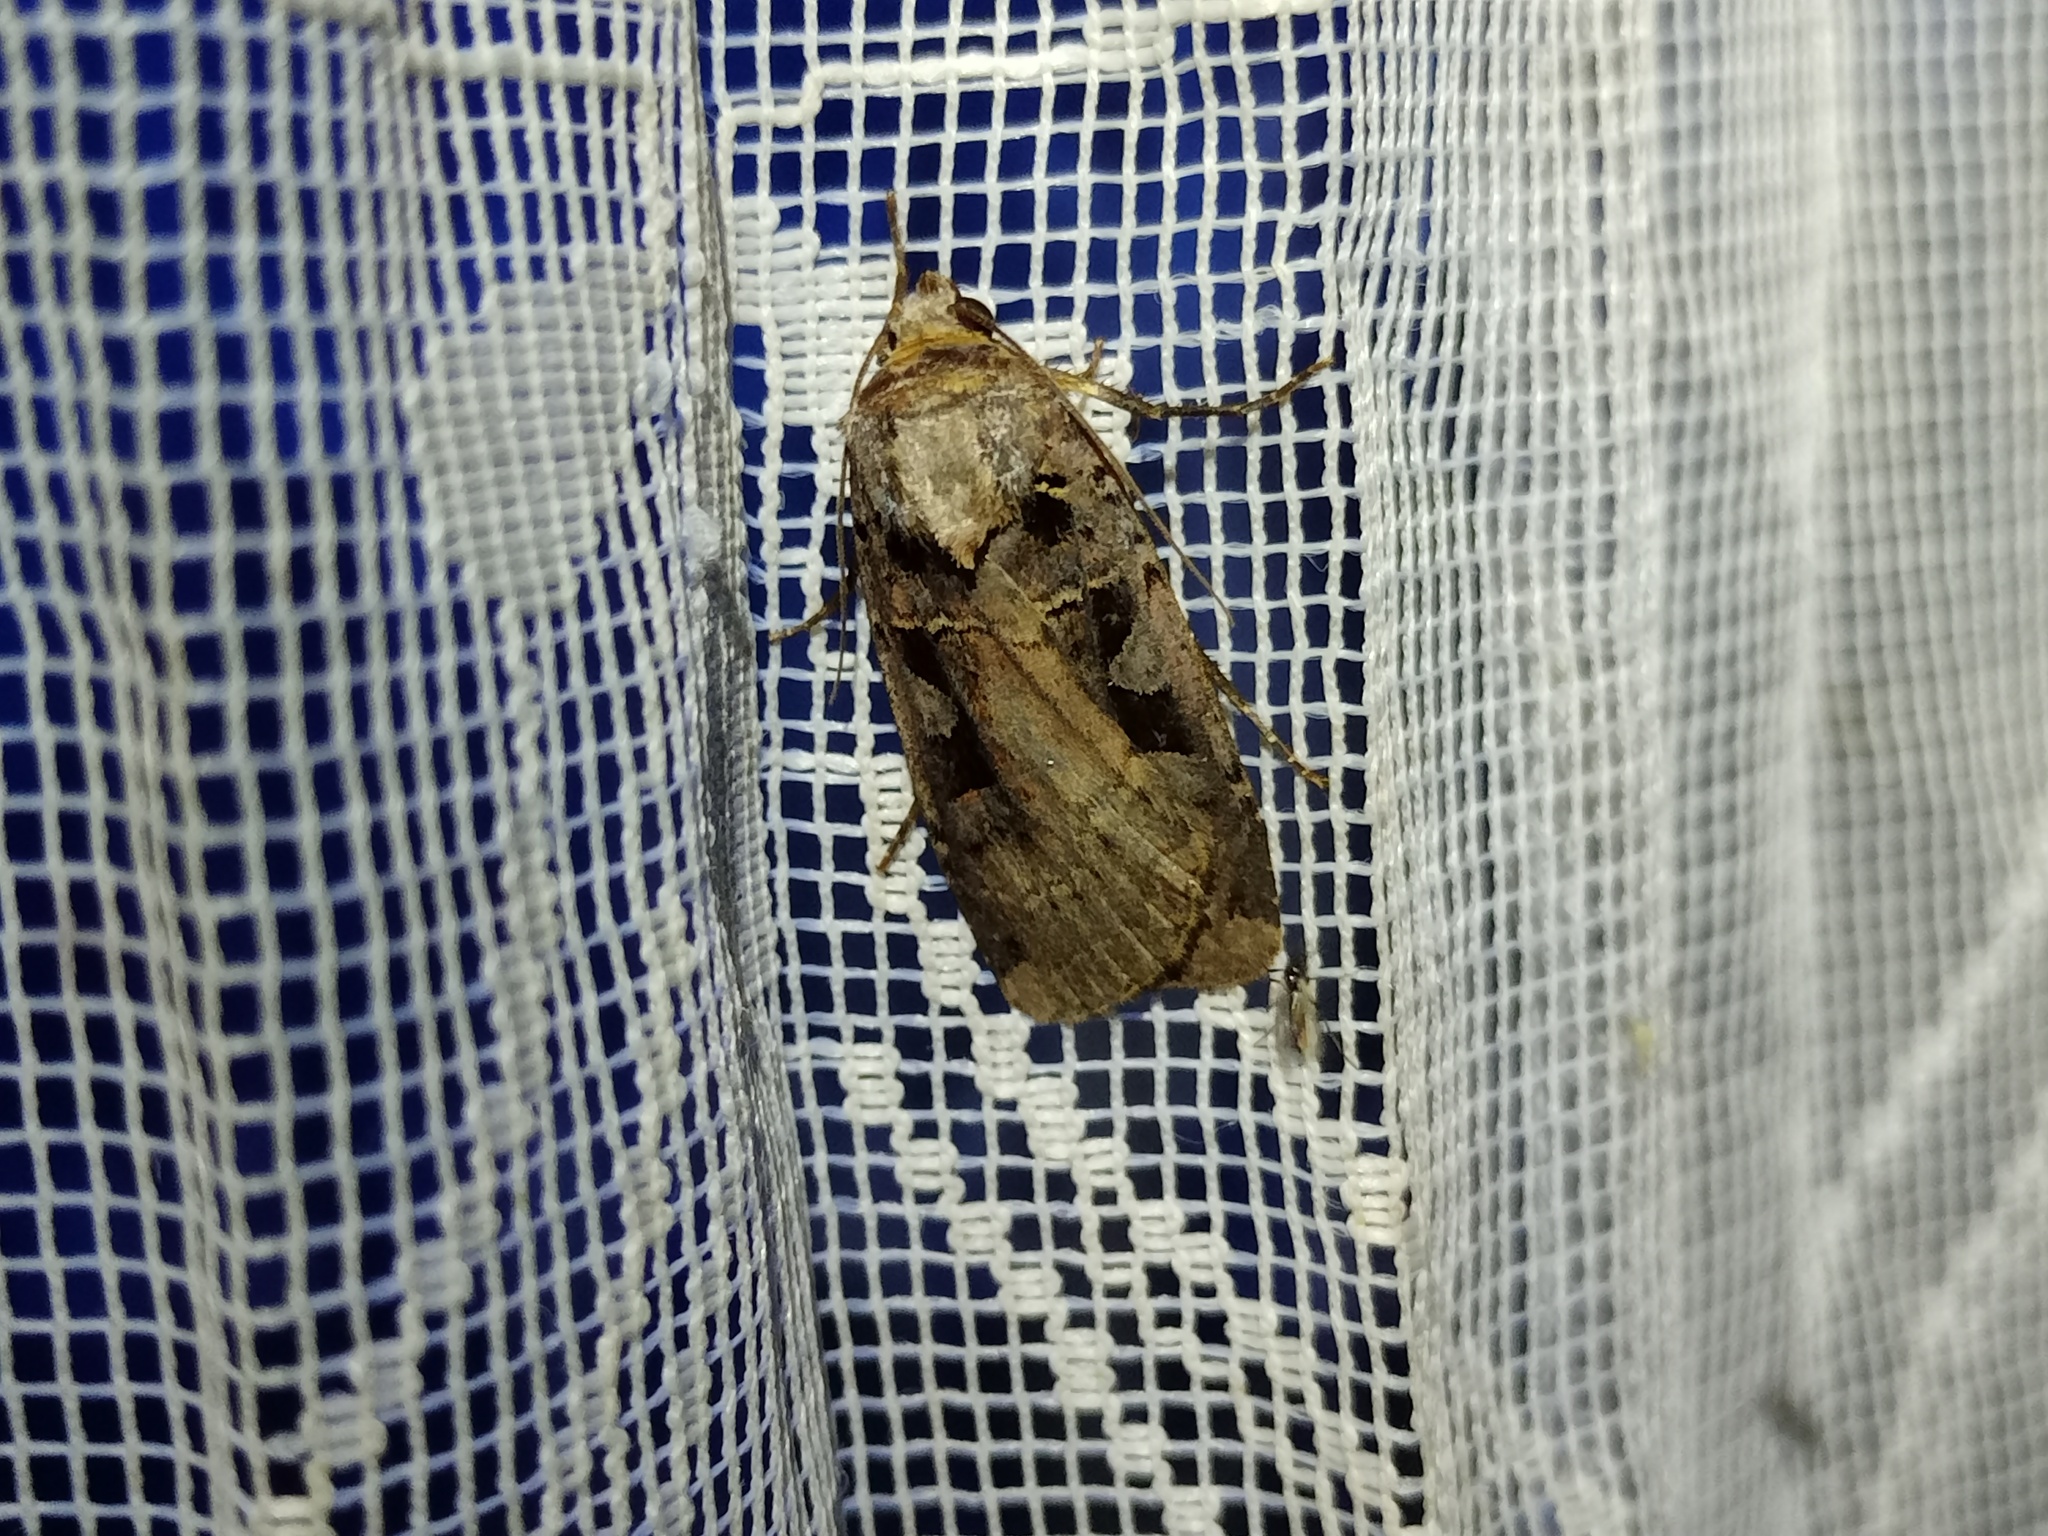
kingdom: Animalia
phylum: Arthropoda
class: Insecta
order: Lepidoptera
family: Noctuidae
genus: Xestia
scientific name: Xestia ditrapezium
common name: Triple-spotted clay
